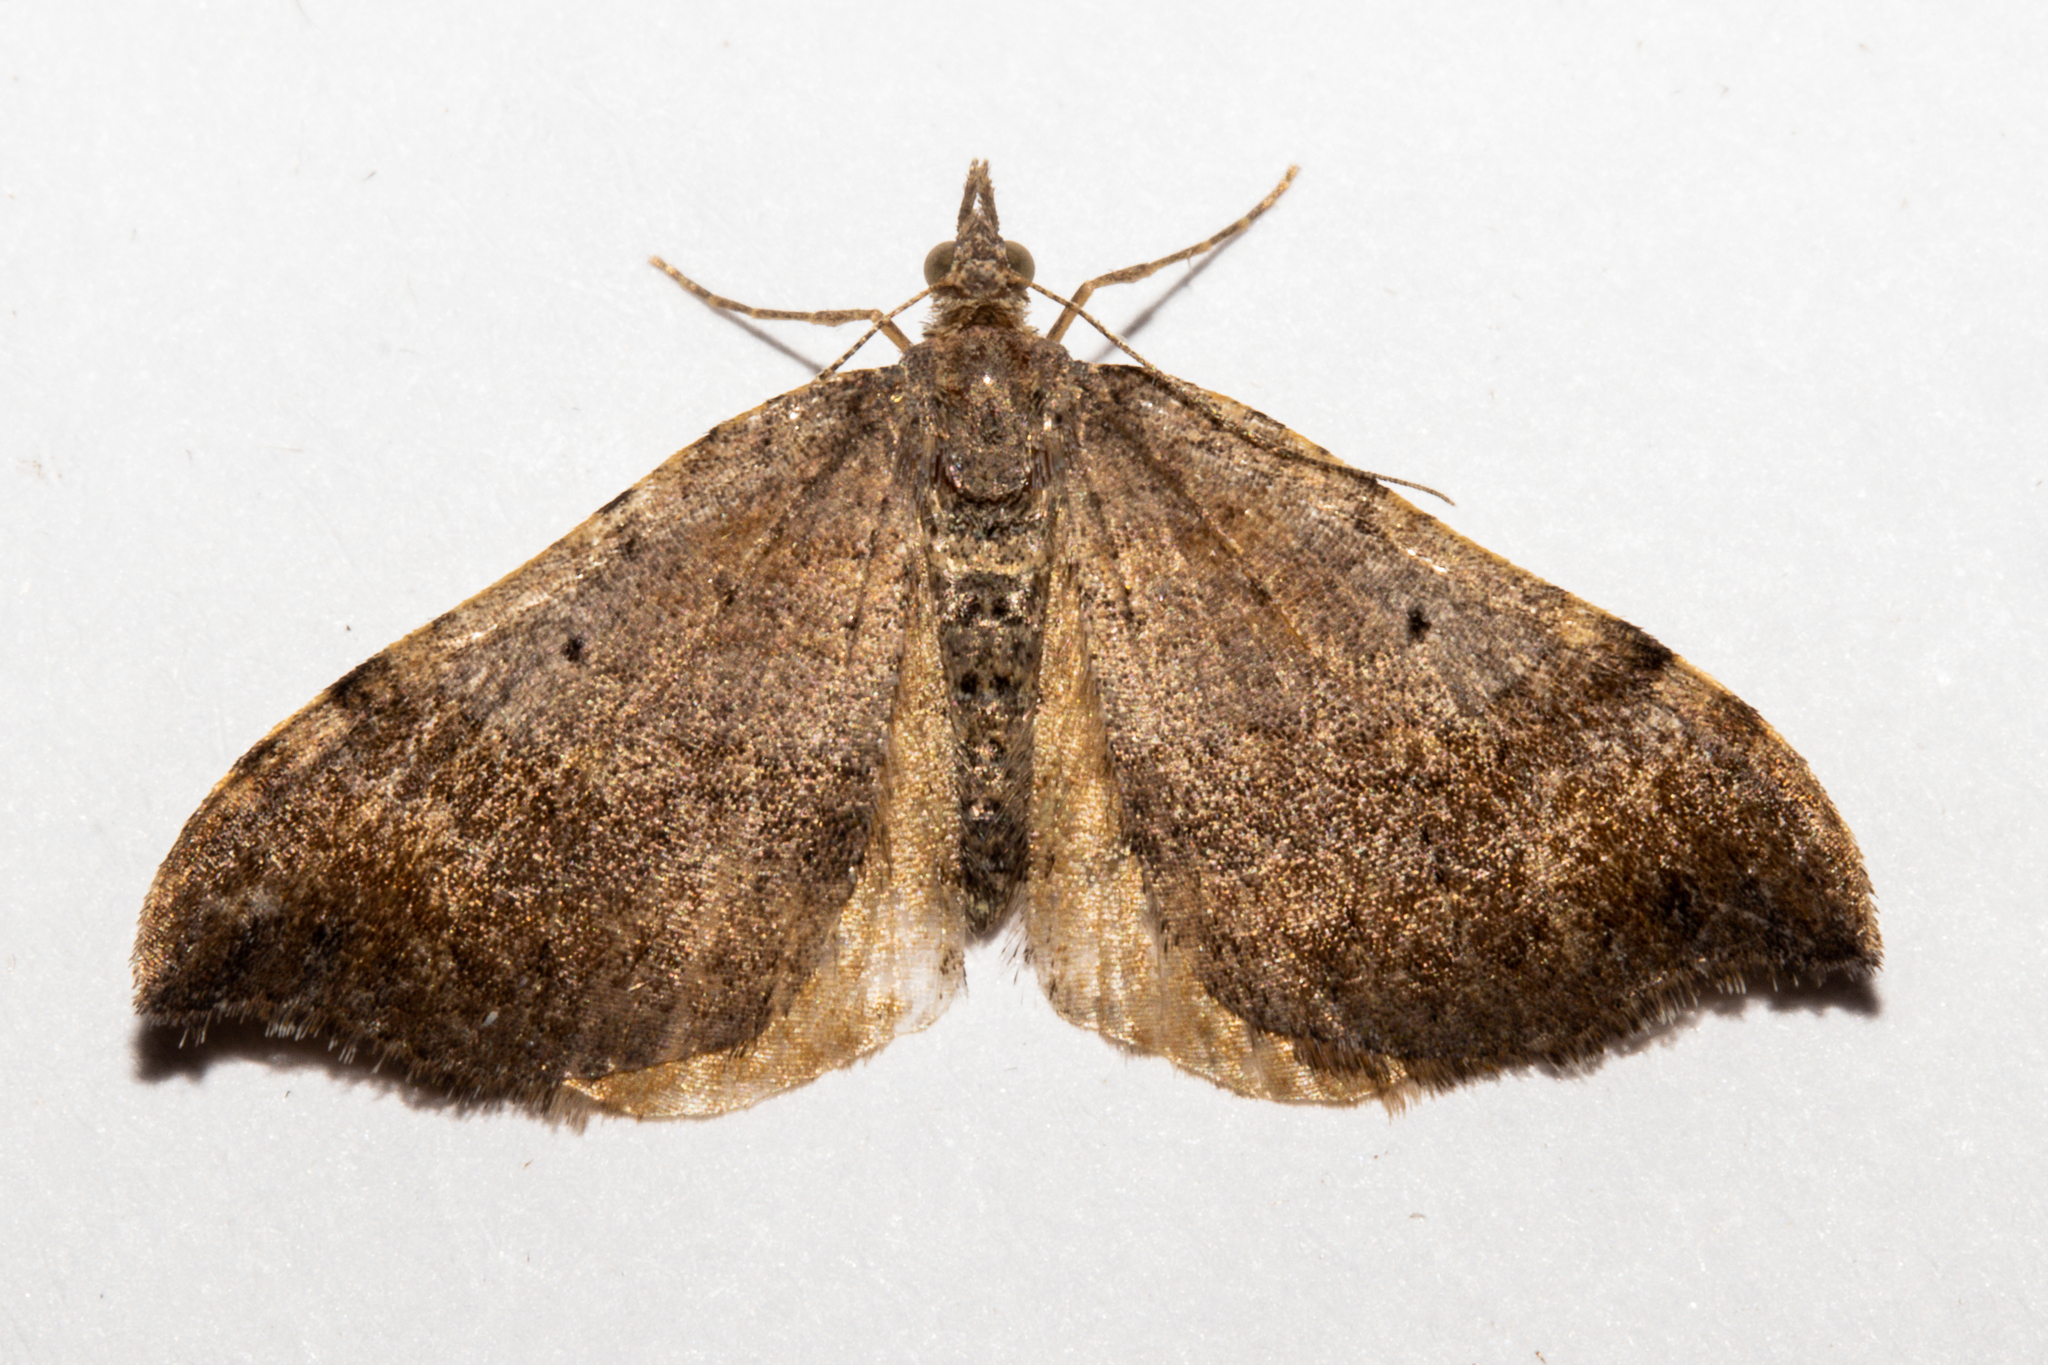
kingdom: Animalia
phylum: Arthropoda
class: Insecta
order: Lepidoptera
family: Geometridae
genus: Homodotis
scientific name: Homodotis megaspilata
